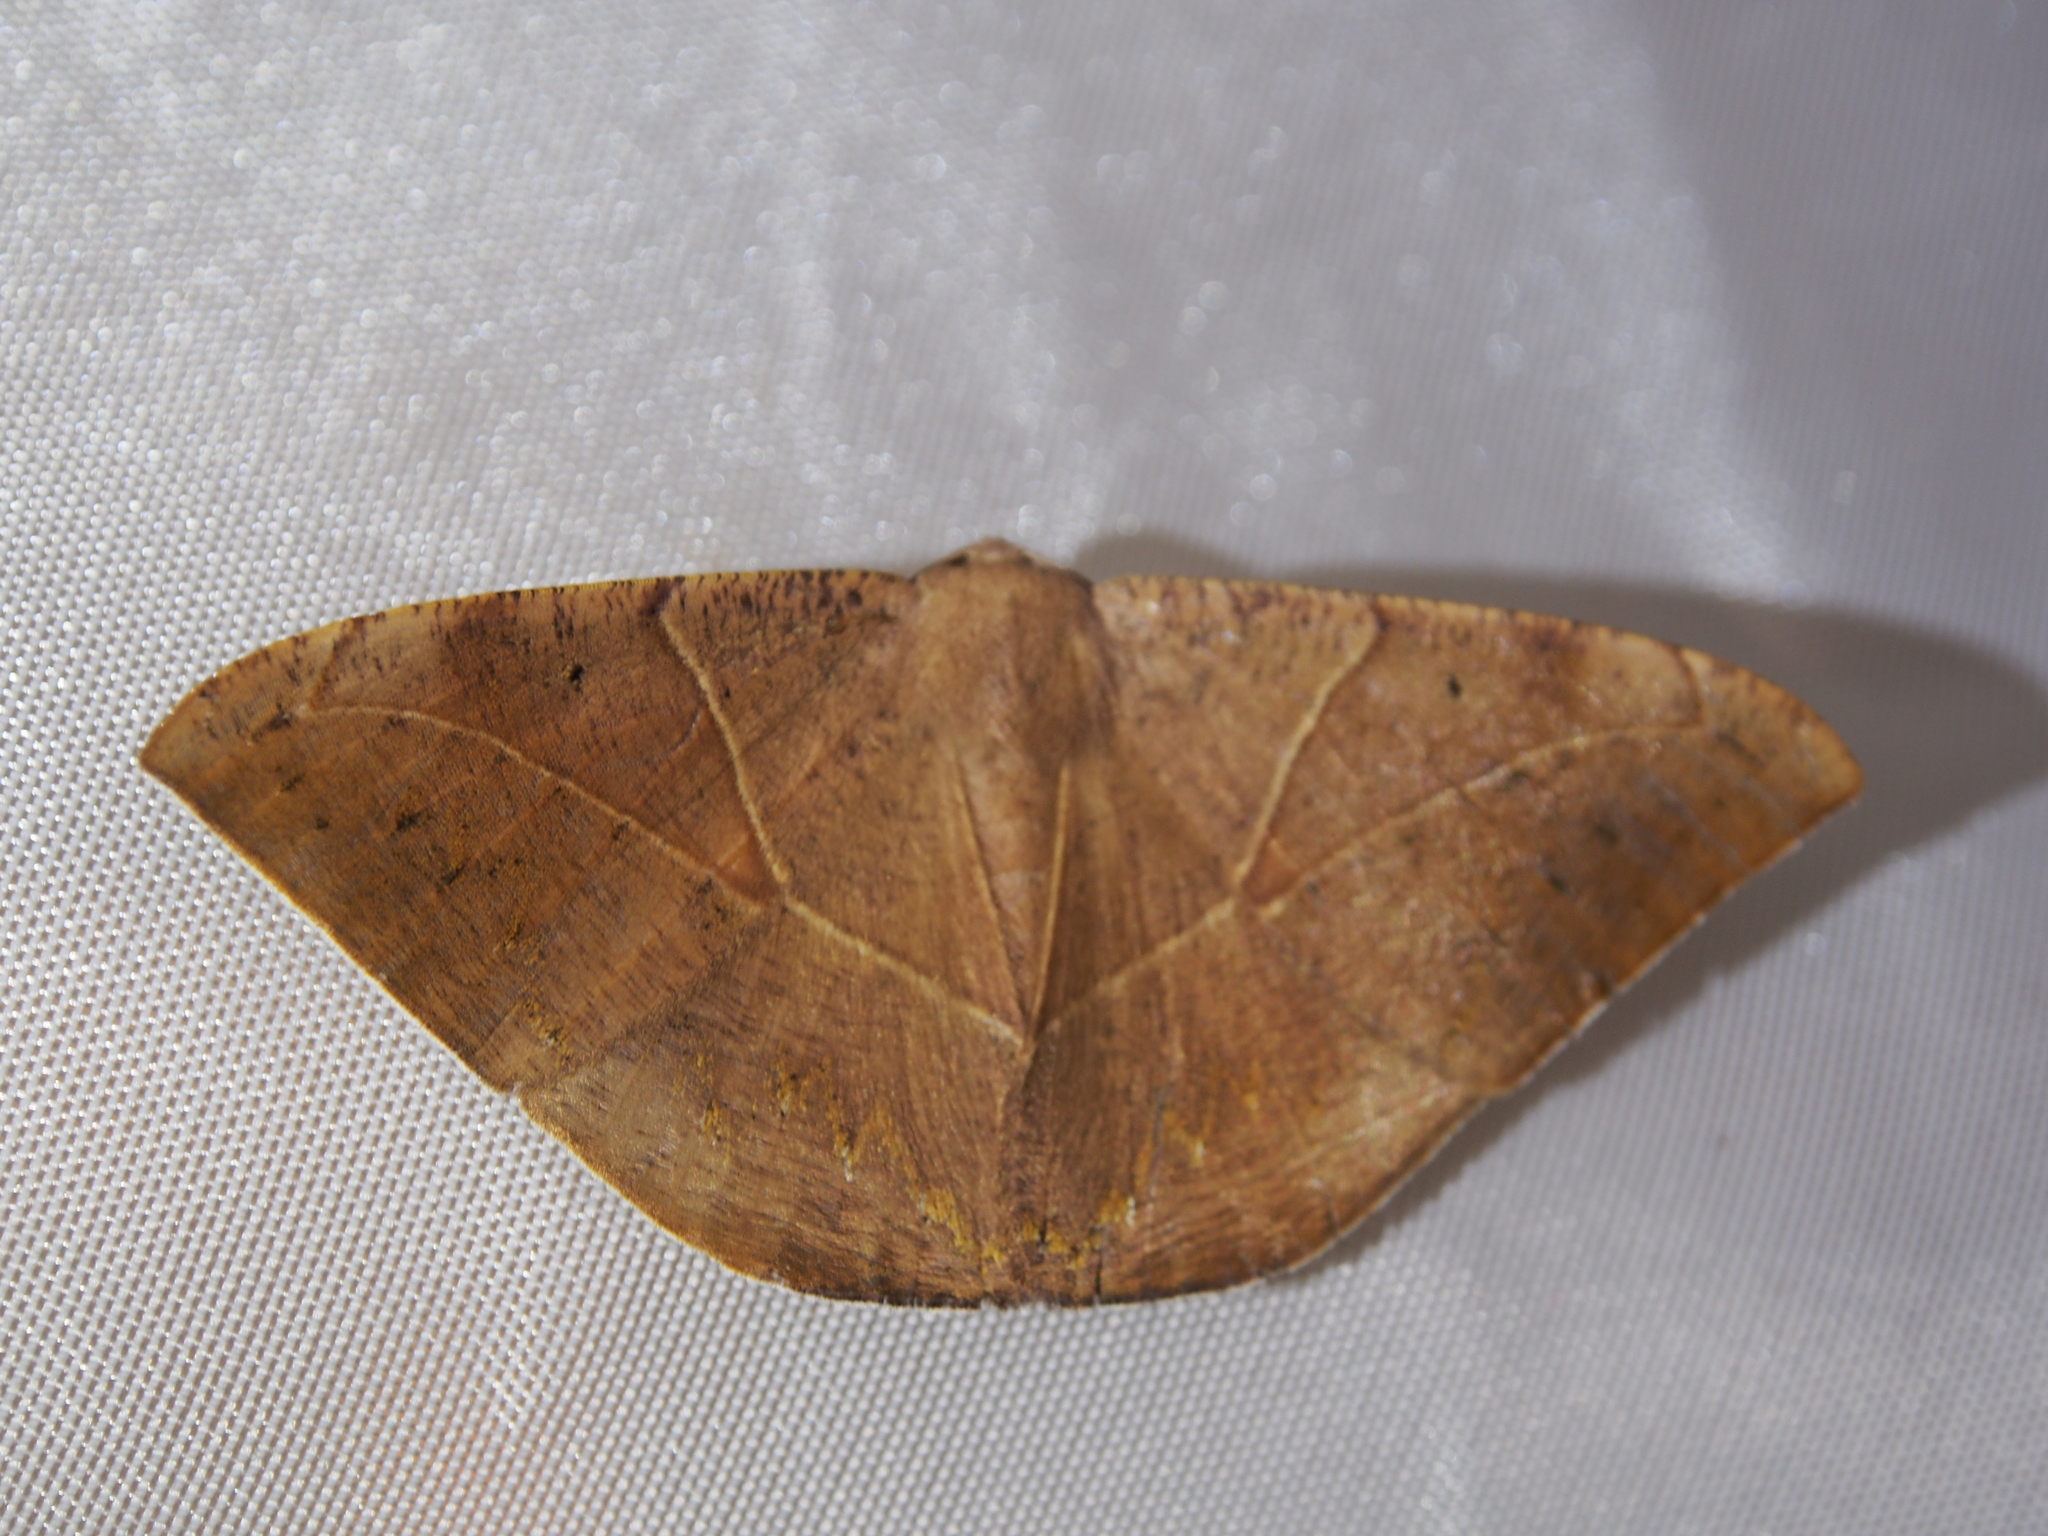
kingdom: Animalia
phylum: Arthropoda
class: Insecta
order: Lepidoptera
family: Geometridae
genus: Oxydia
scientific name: Oxydia trychiata
